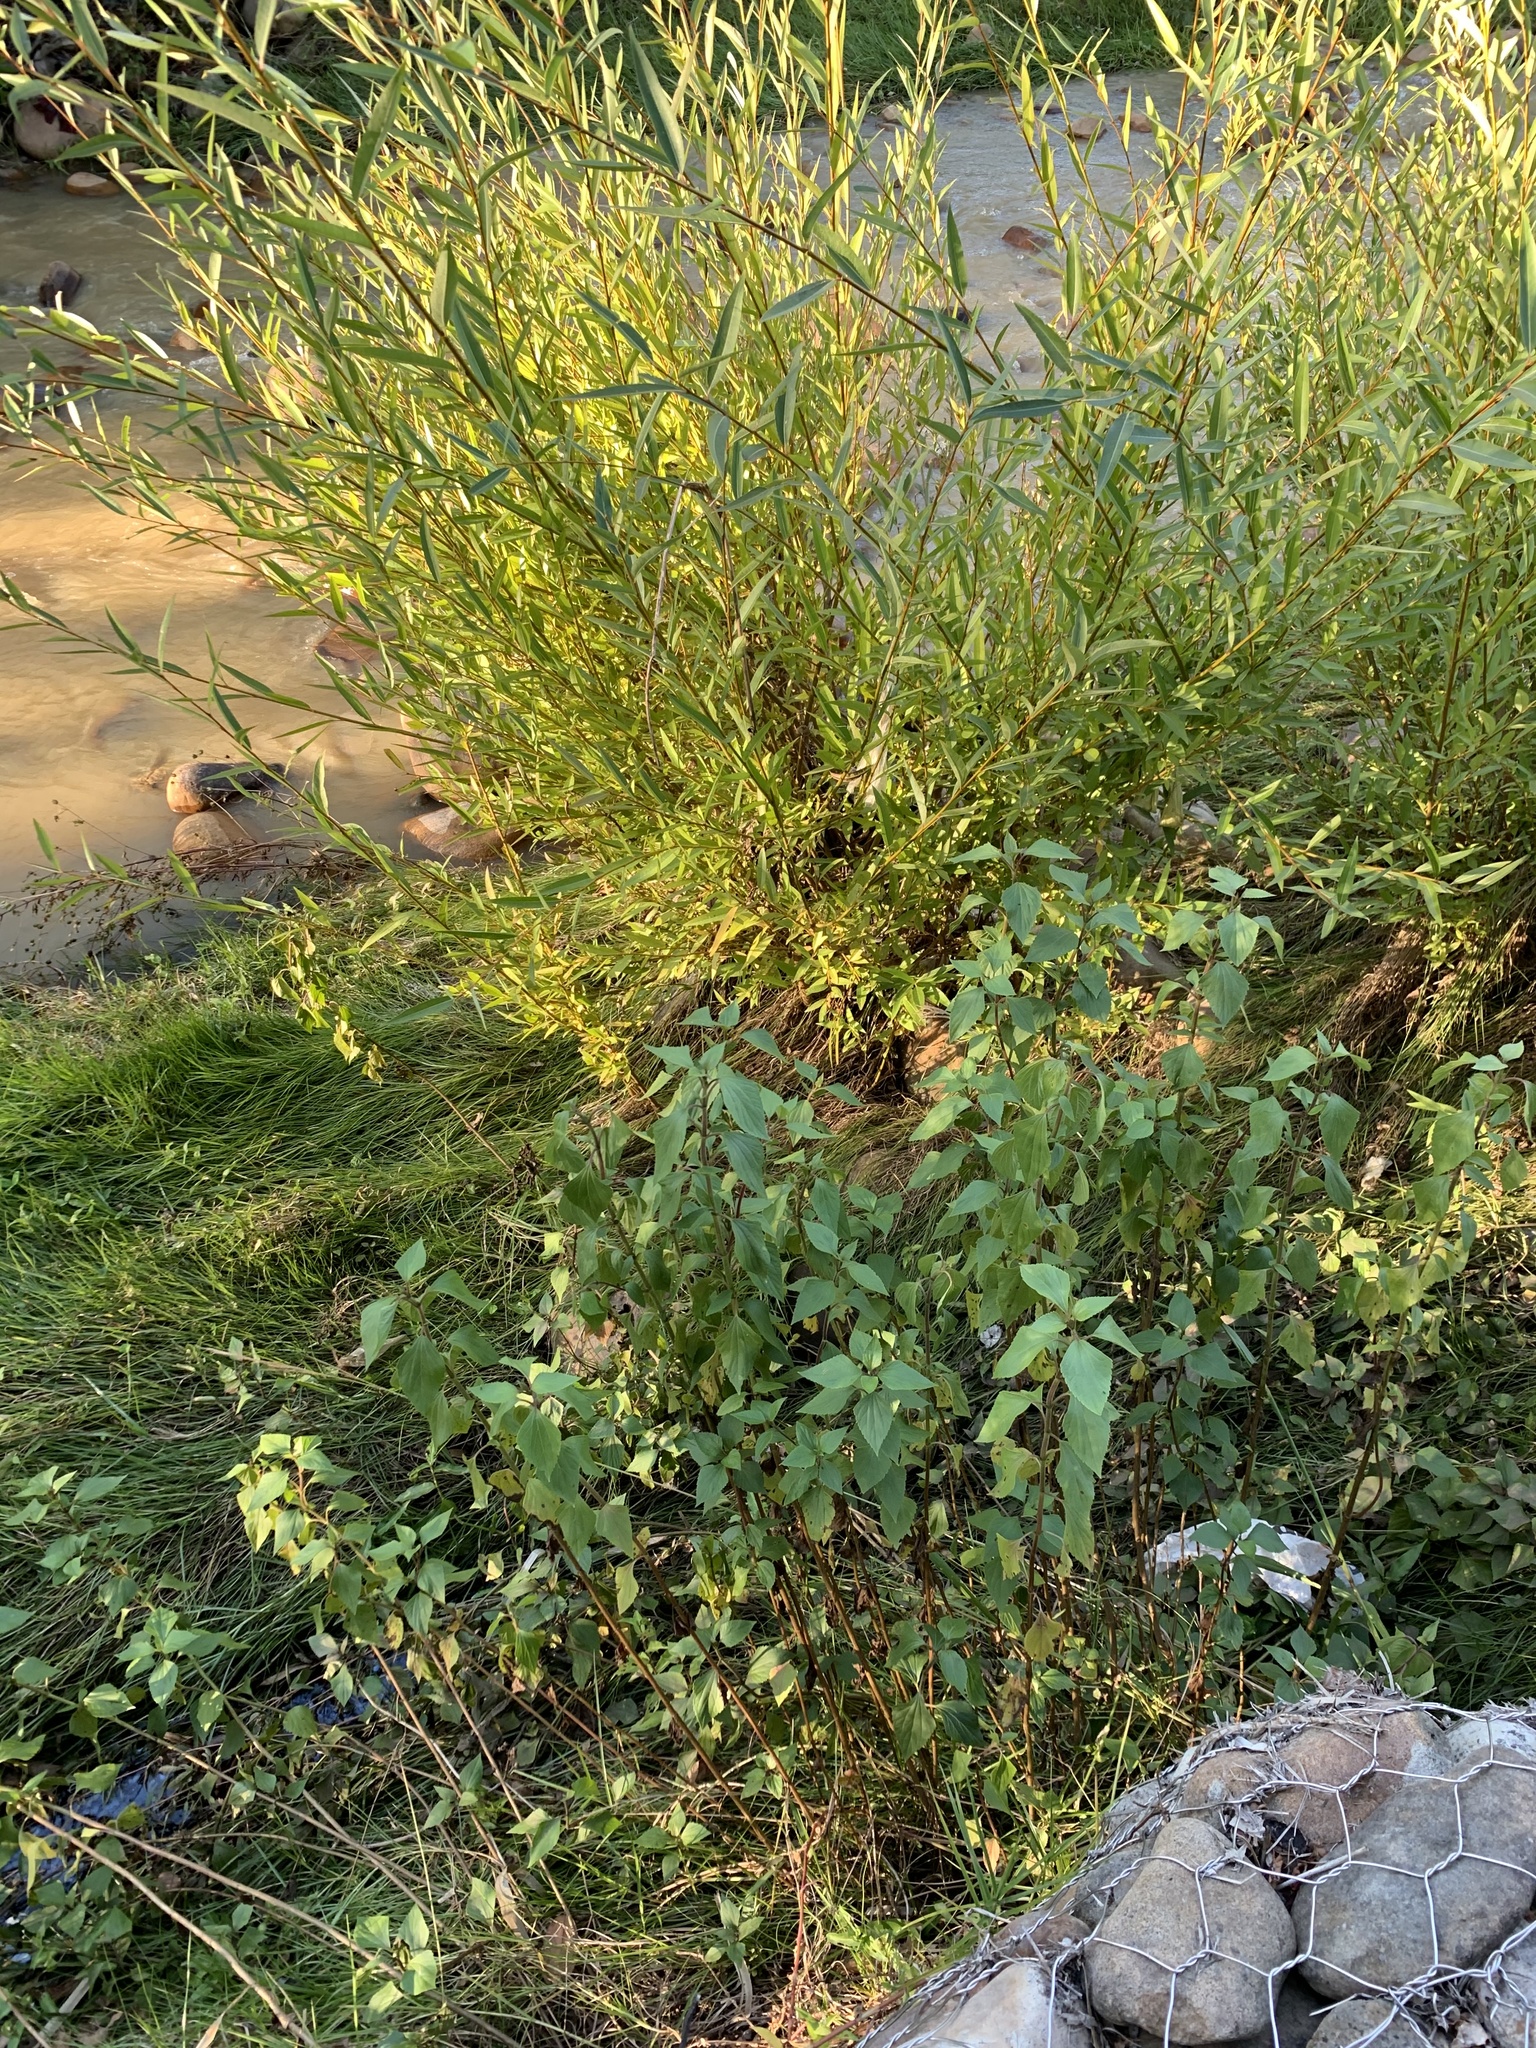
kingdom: Plantae
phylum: Tracheophyta
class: Magnoliopsida
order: Asterales
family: Asteraceae
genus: Ageratina
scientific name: Ageratina adenophora
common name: Sticky snakeroot
